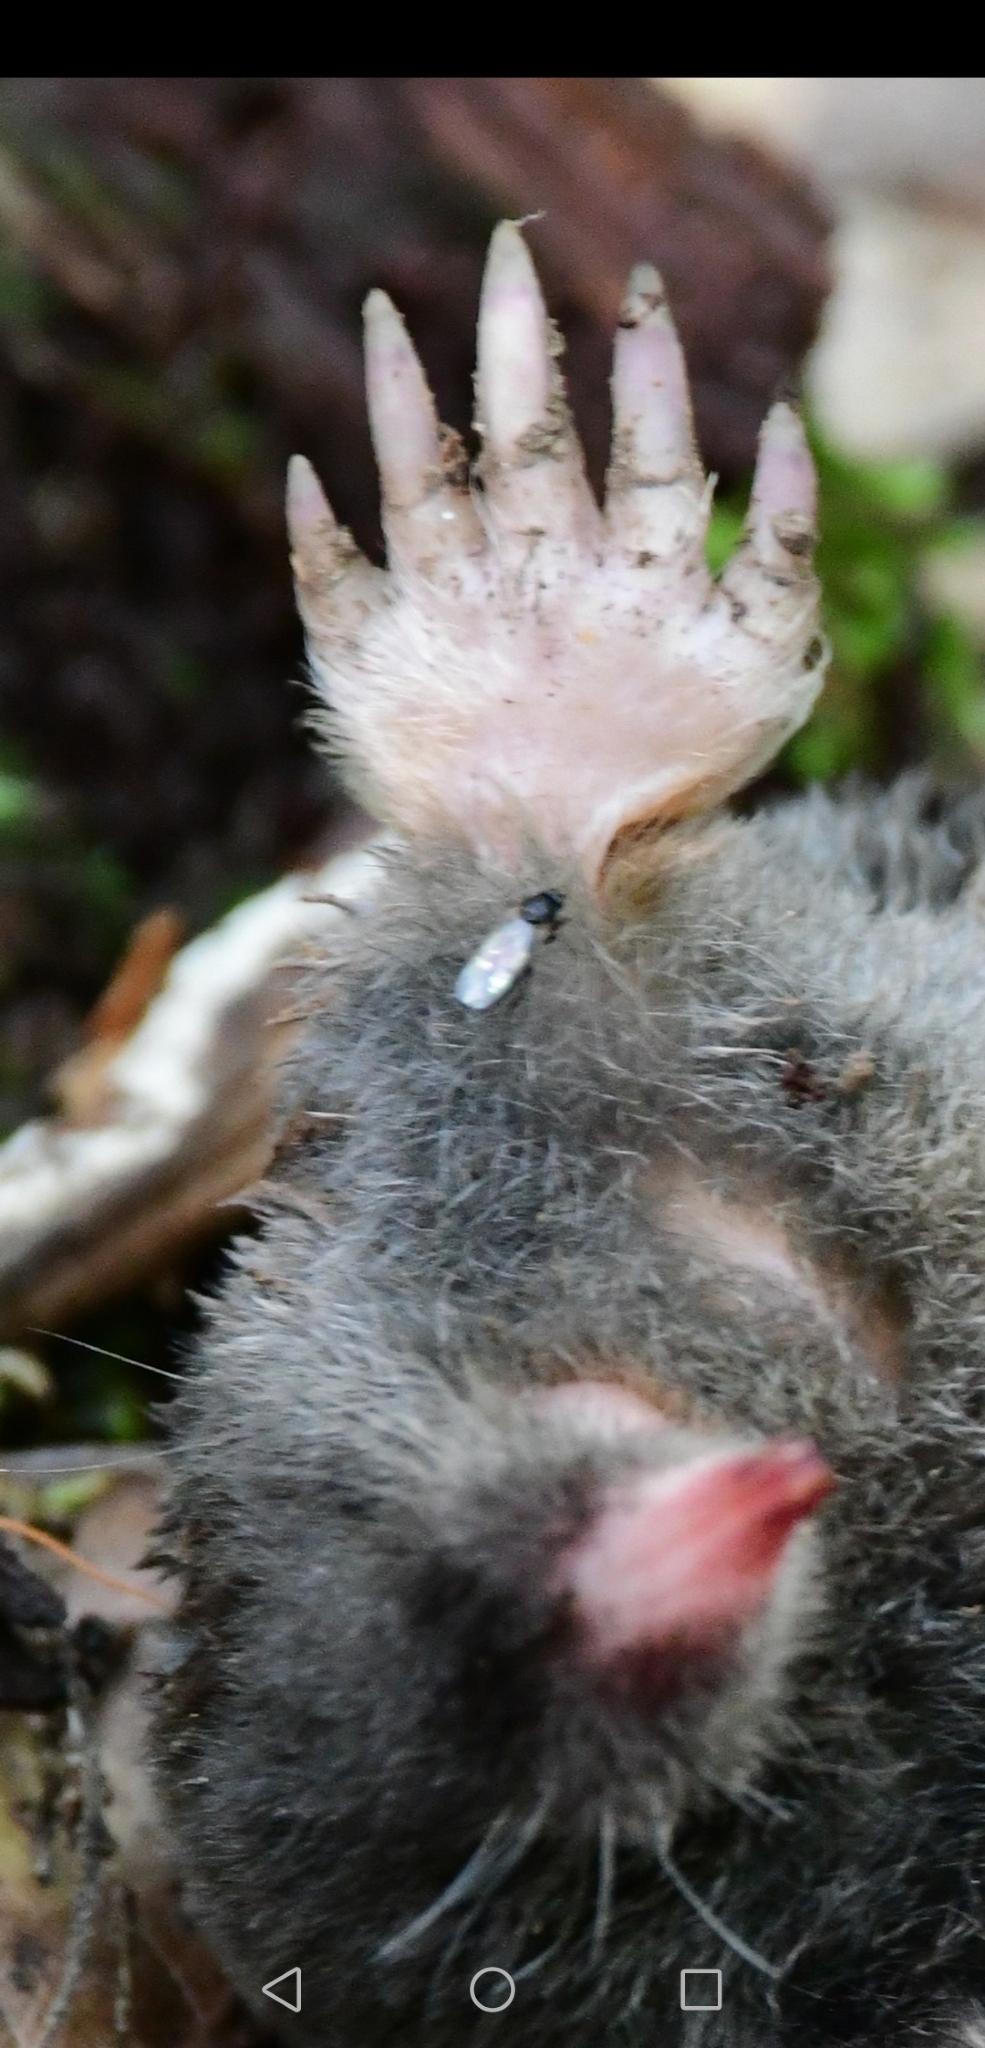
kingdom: Animalia
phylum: Chordata
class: Mammalia
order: Soricomorpha
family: Talpidae
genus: Parascalops
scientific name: Parascalops breweri
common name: Hairy-tailed mole
